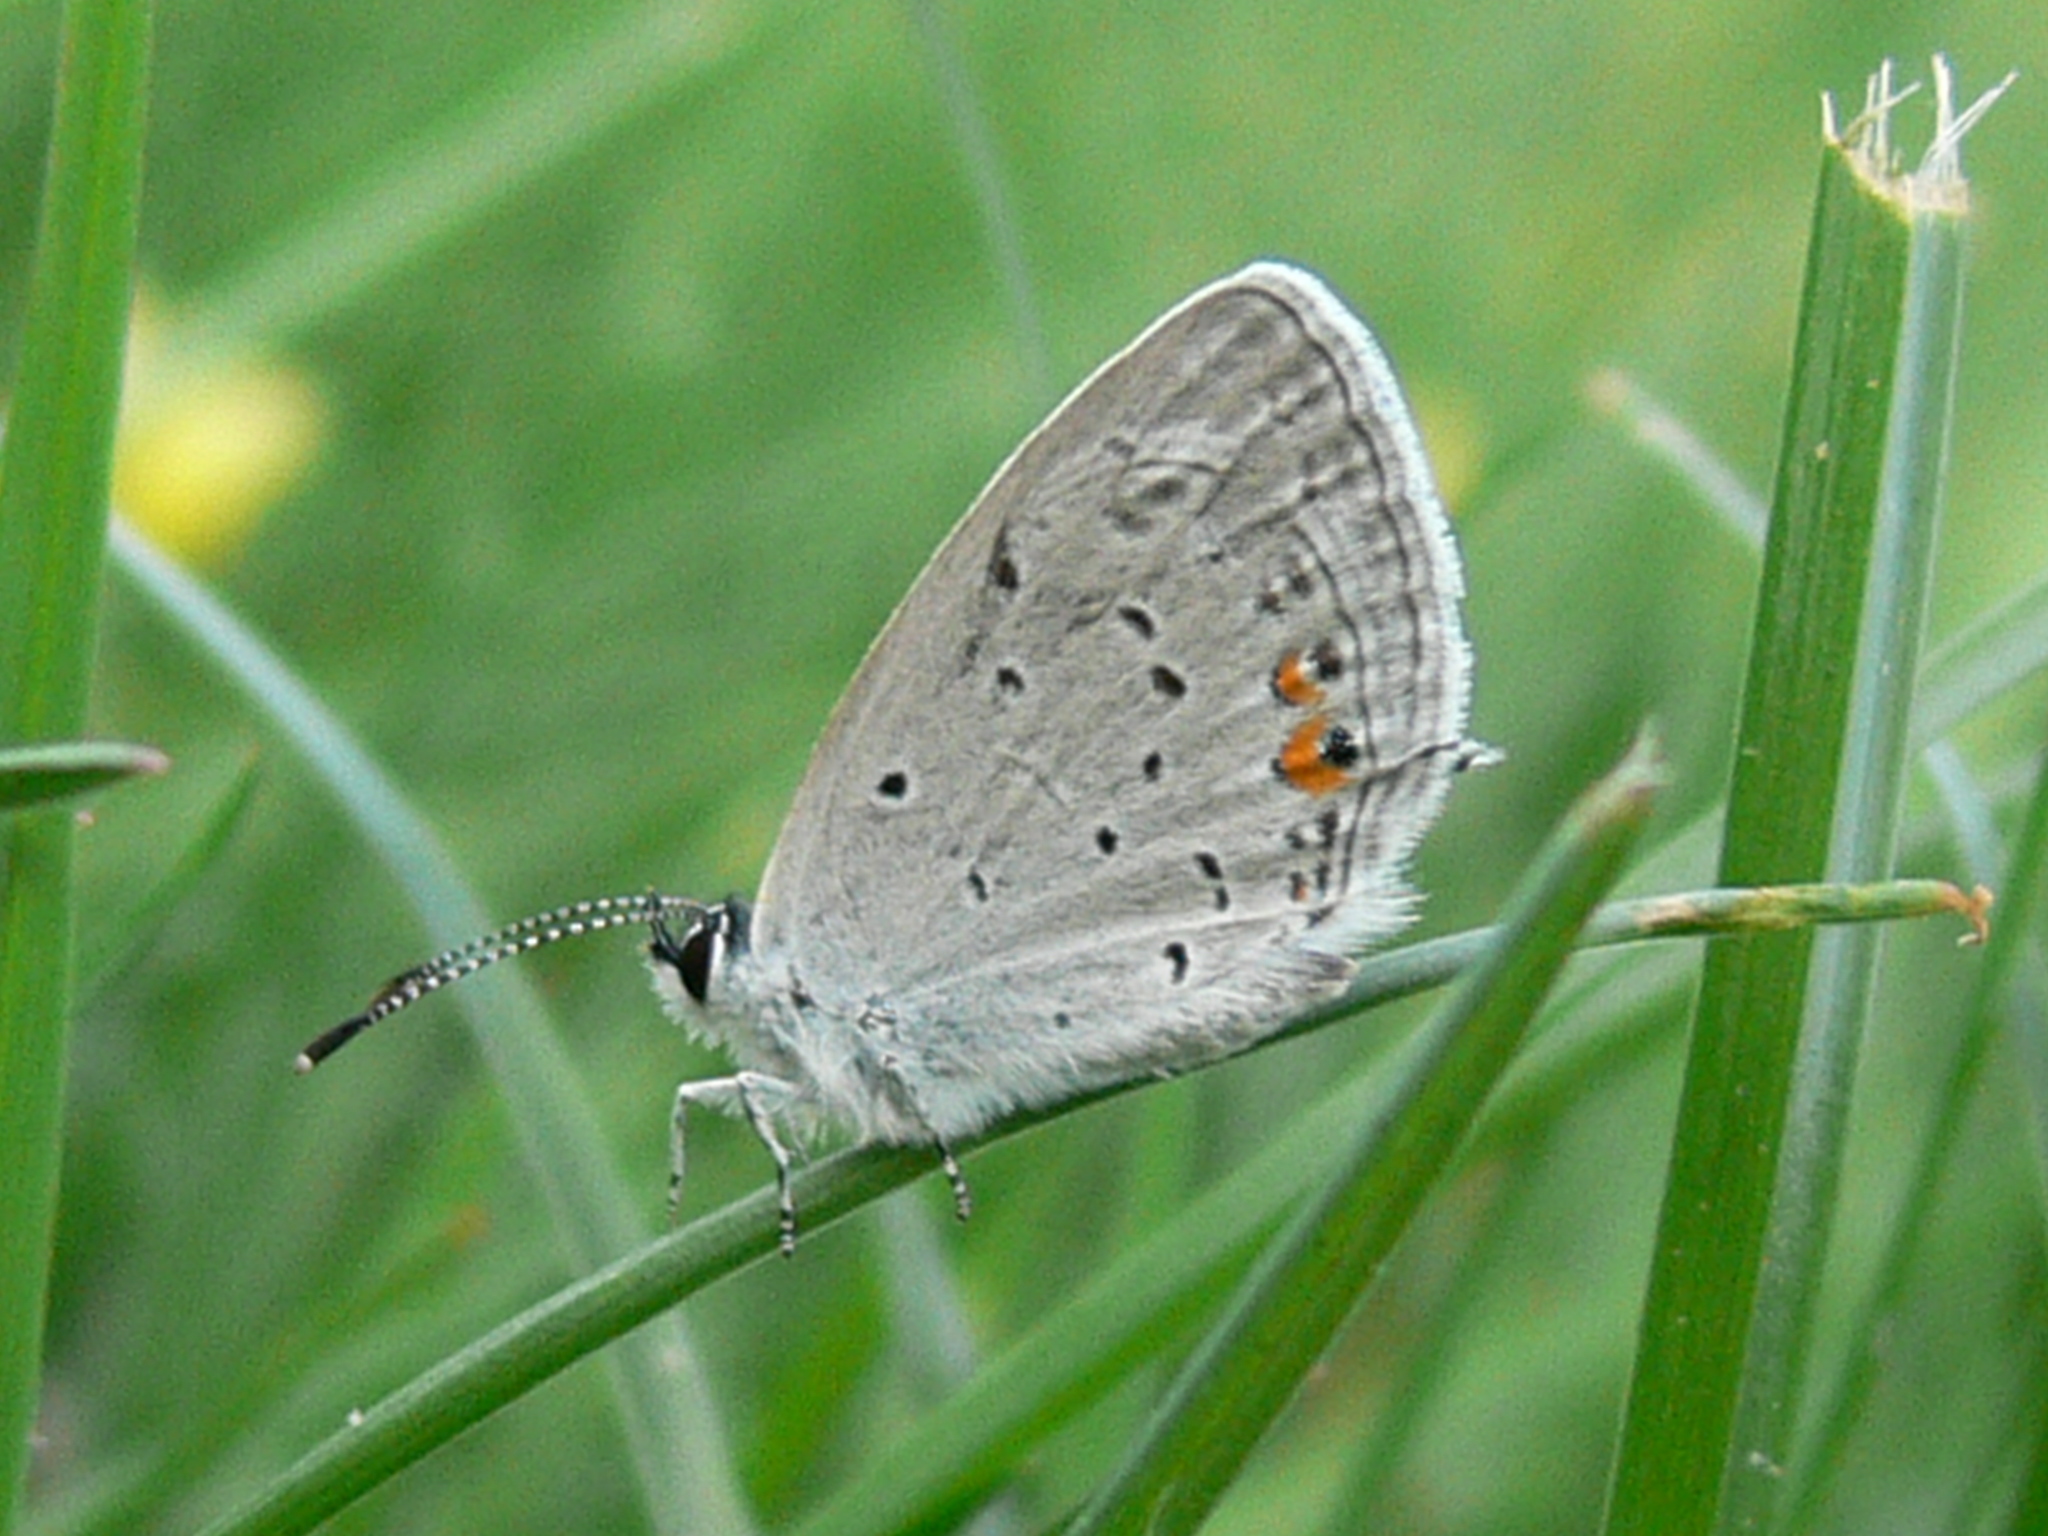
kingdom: Animalia
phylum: Arthropoda
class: Insecta
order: Lepidoptera
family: Lycaenidae
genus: Elkalyce
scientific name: Elkalyce comyntas
